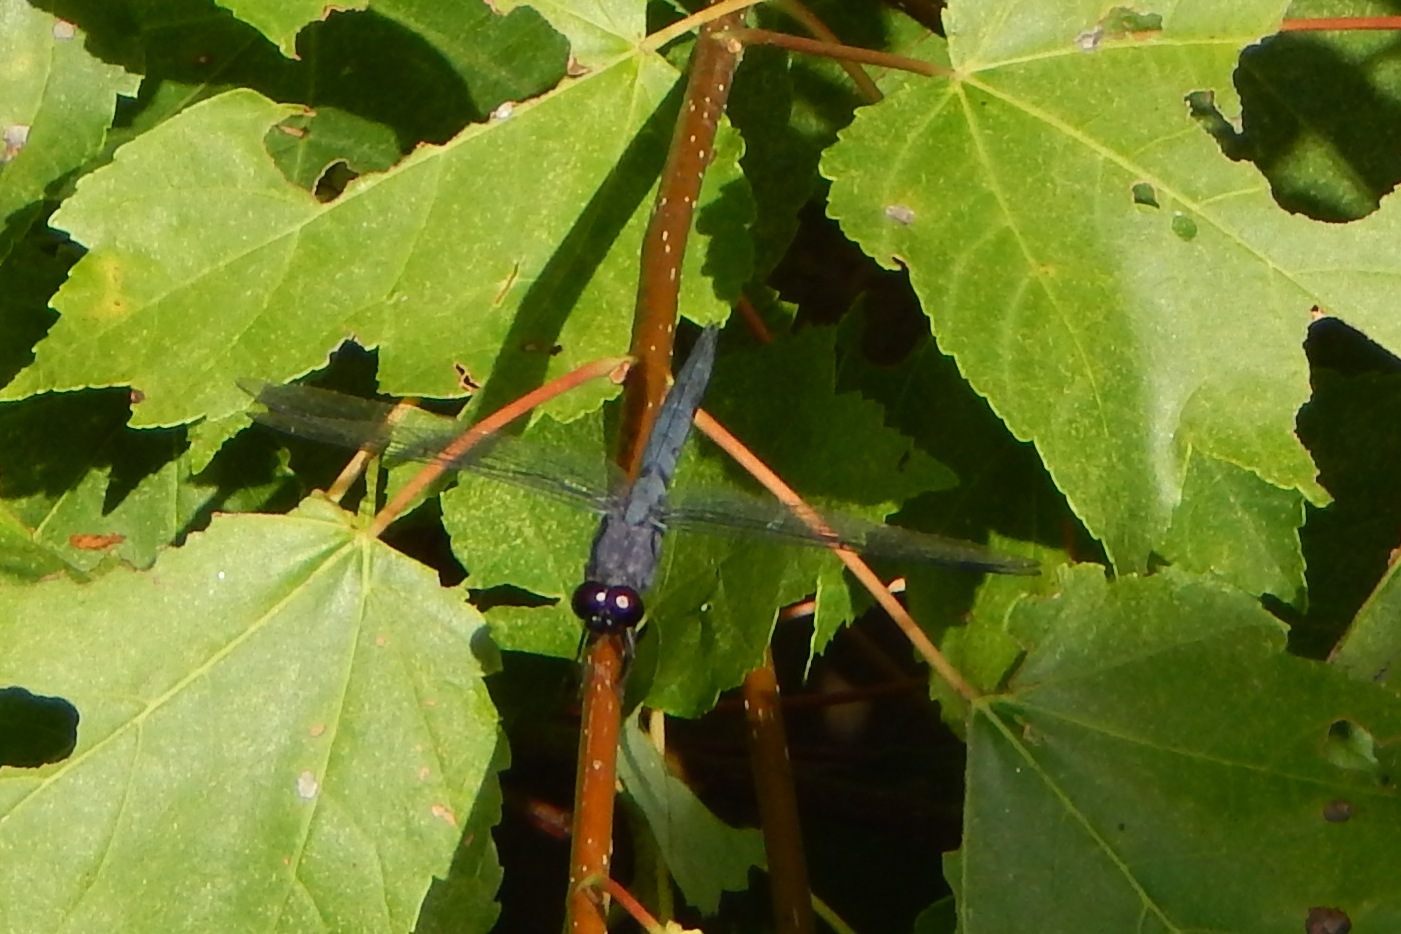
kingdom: Animalia
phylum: Arthropoda
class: Insecta
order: Odonata
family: Libellulidae
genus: Libellula
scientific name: Libellula incesta
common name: Slaty skimmer
